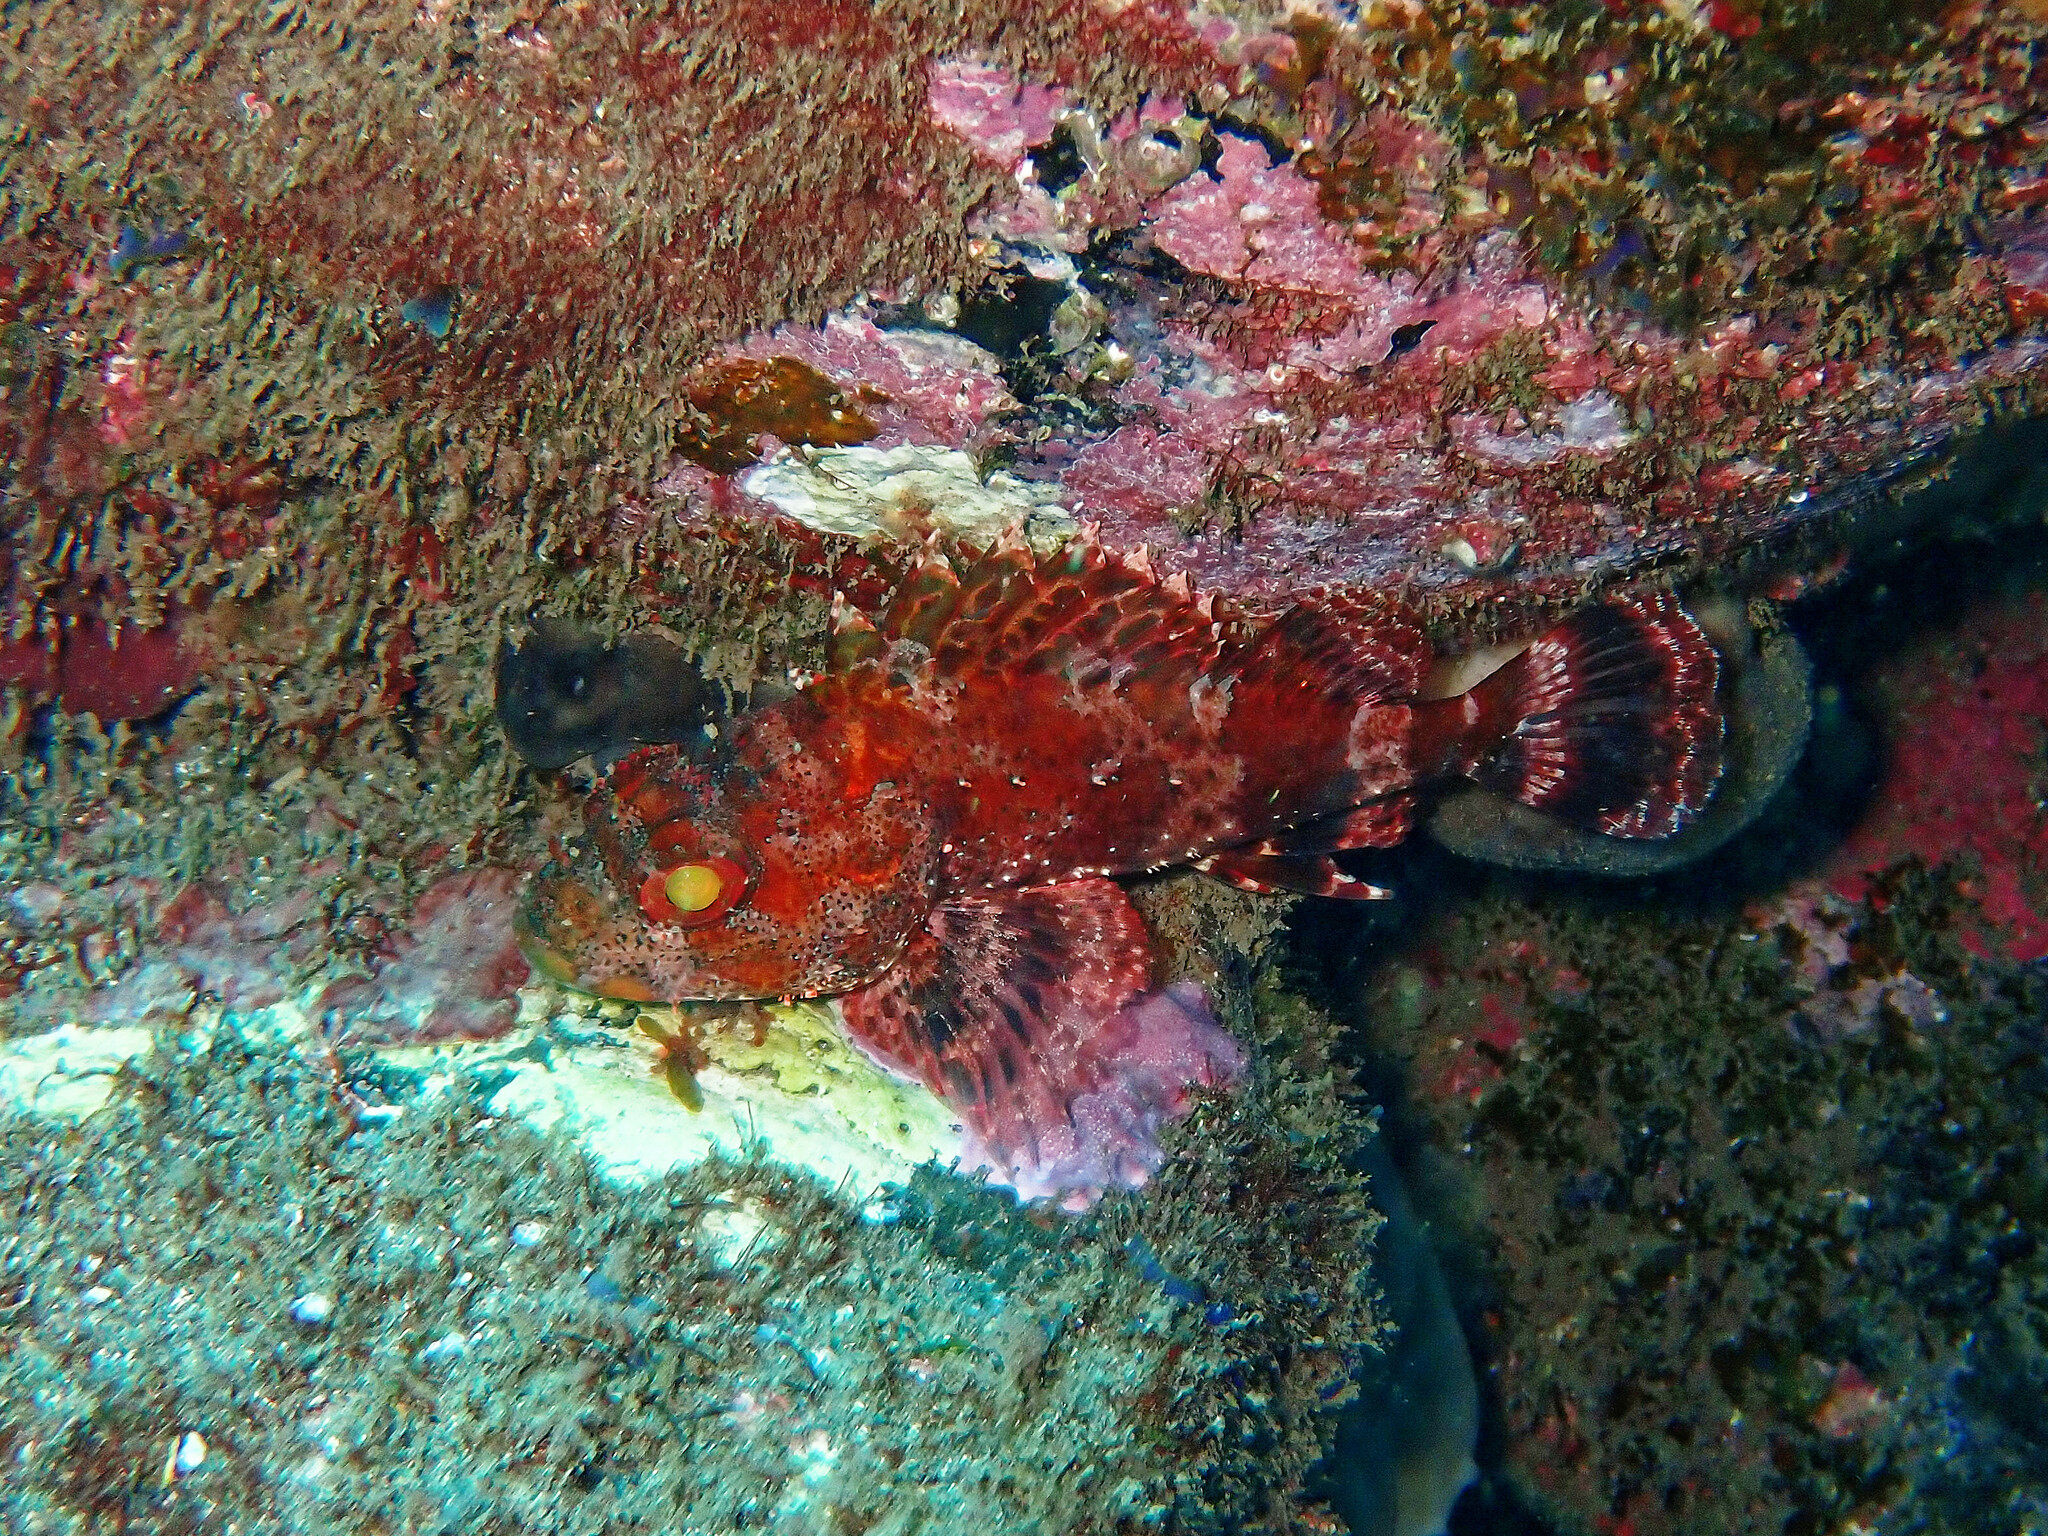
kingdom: Animalia
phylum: Chordata
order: Scorpaeniformes
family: Scorpaenidae
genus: Scorpaena
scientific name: Scorpaena maderensis
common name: Madeira rockfish
